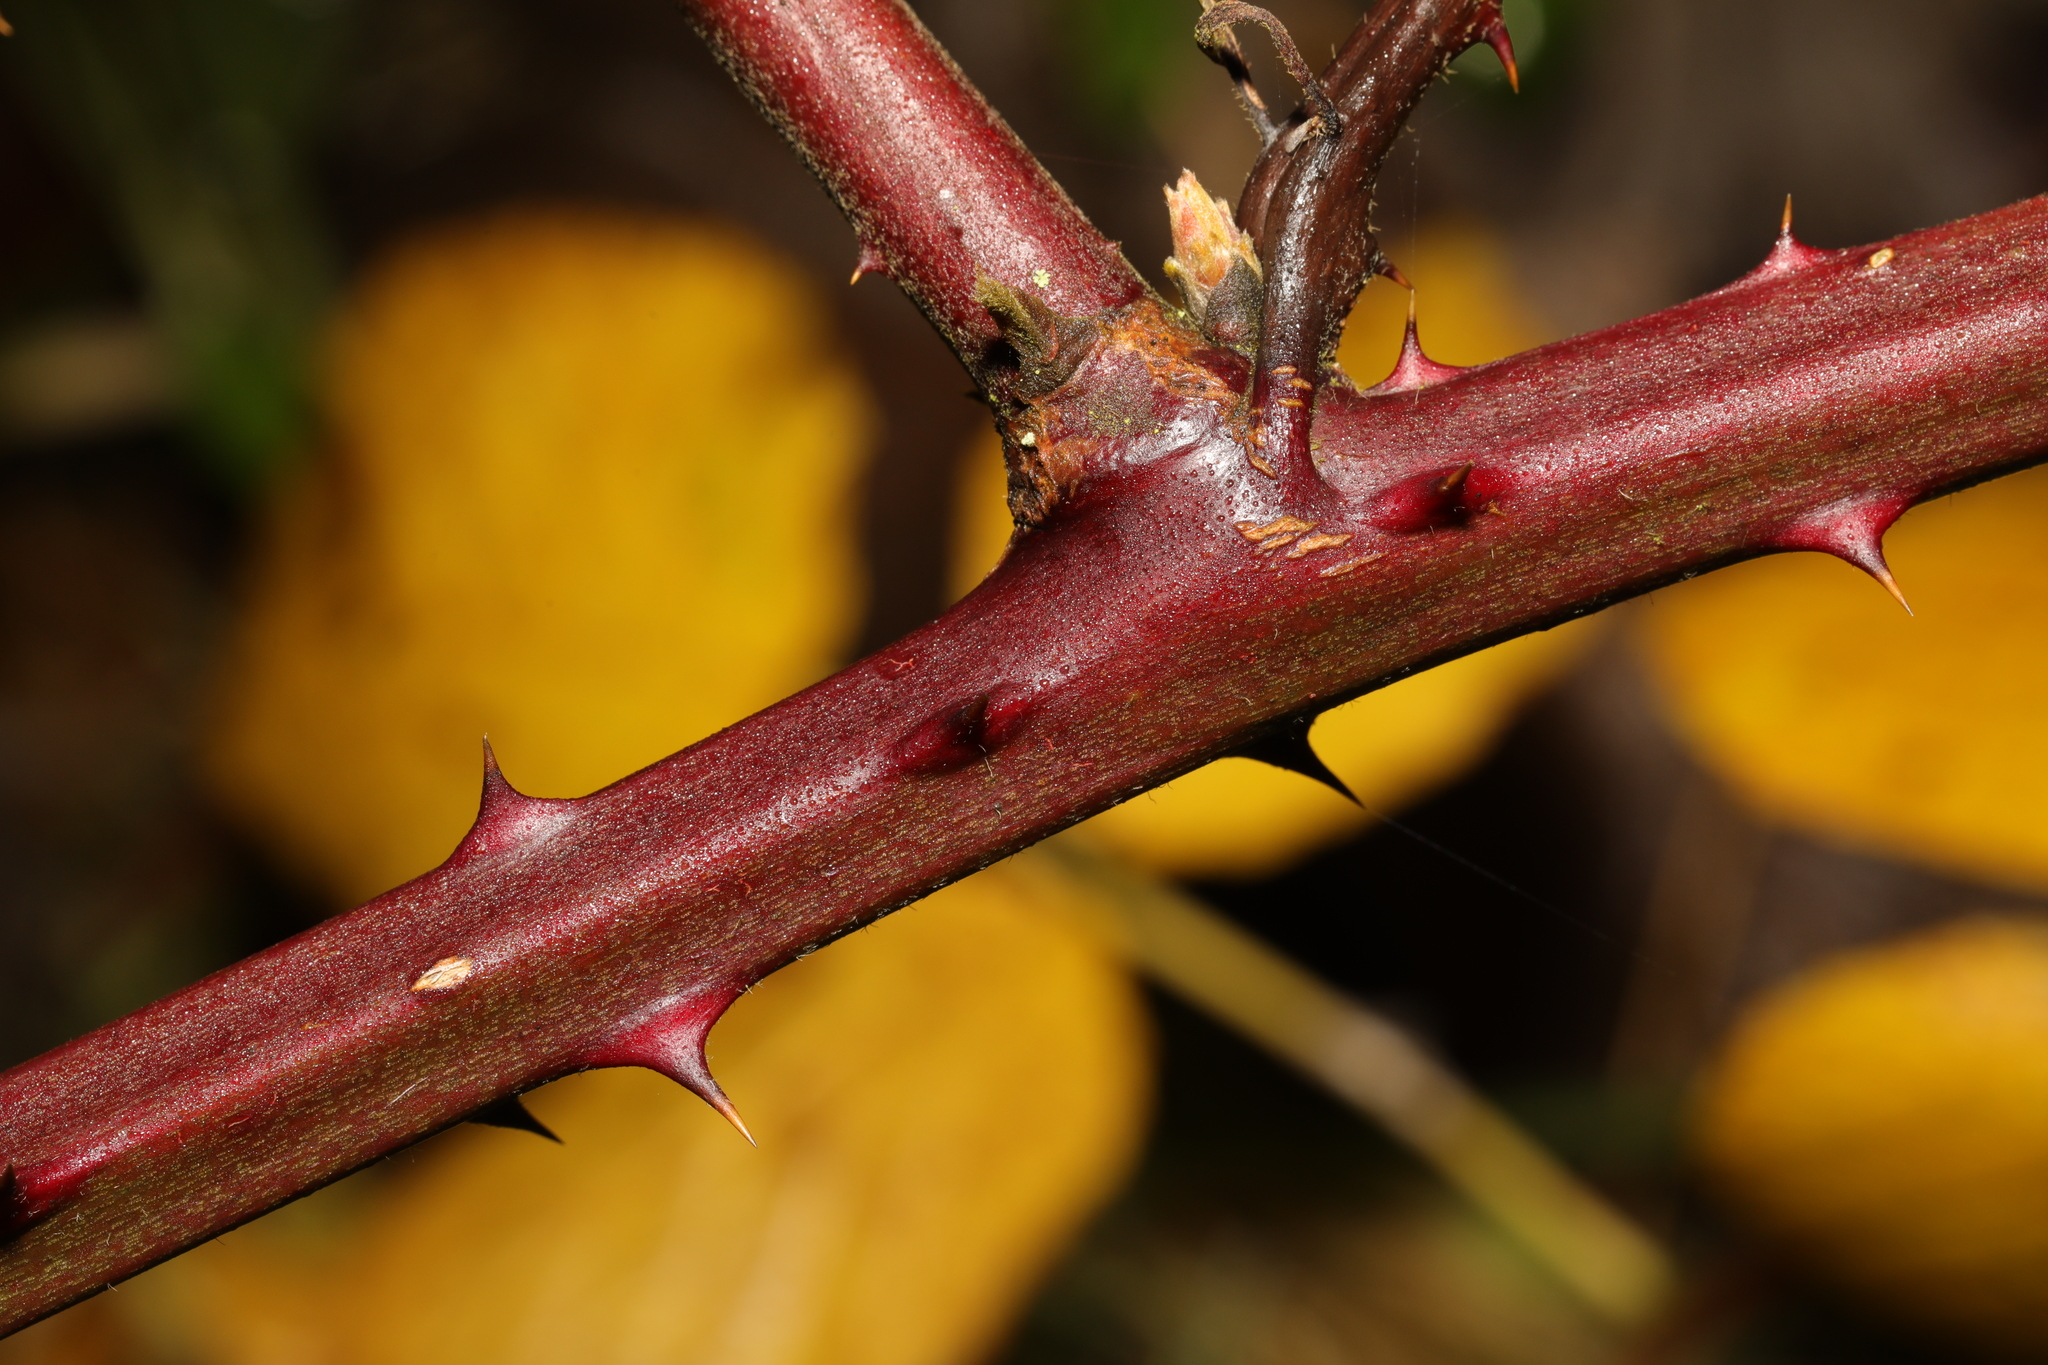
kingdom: Plantae
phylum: Tracheophyta
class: Magnoliopsida
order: Rosales
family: Rosaceae
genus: Rubus
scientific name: Rubus armeniacus
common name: Himalayan blackberry
